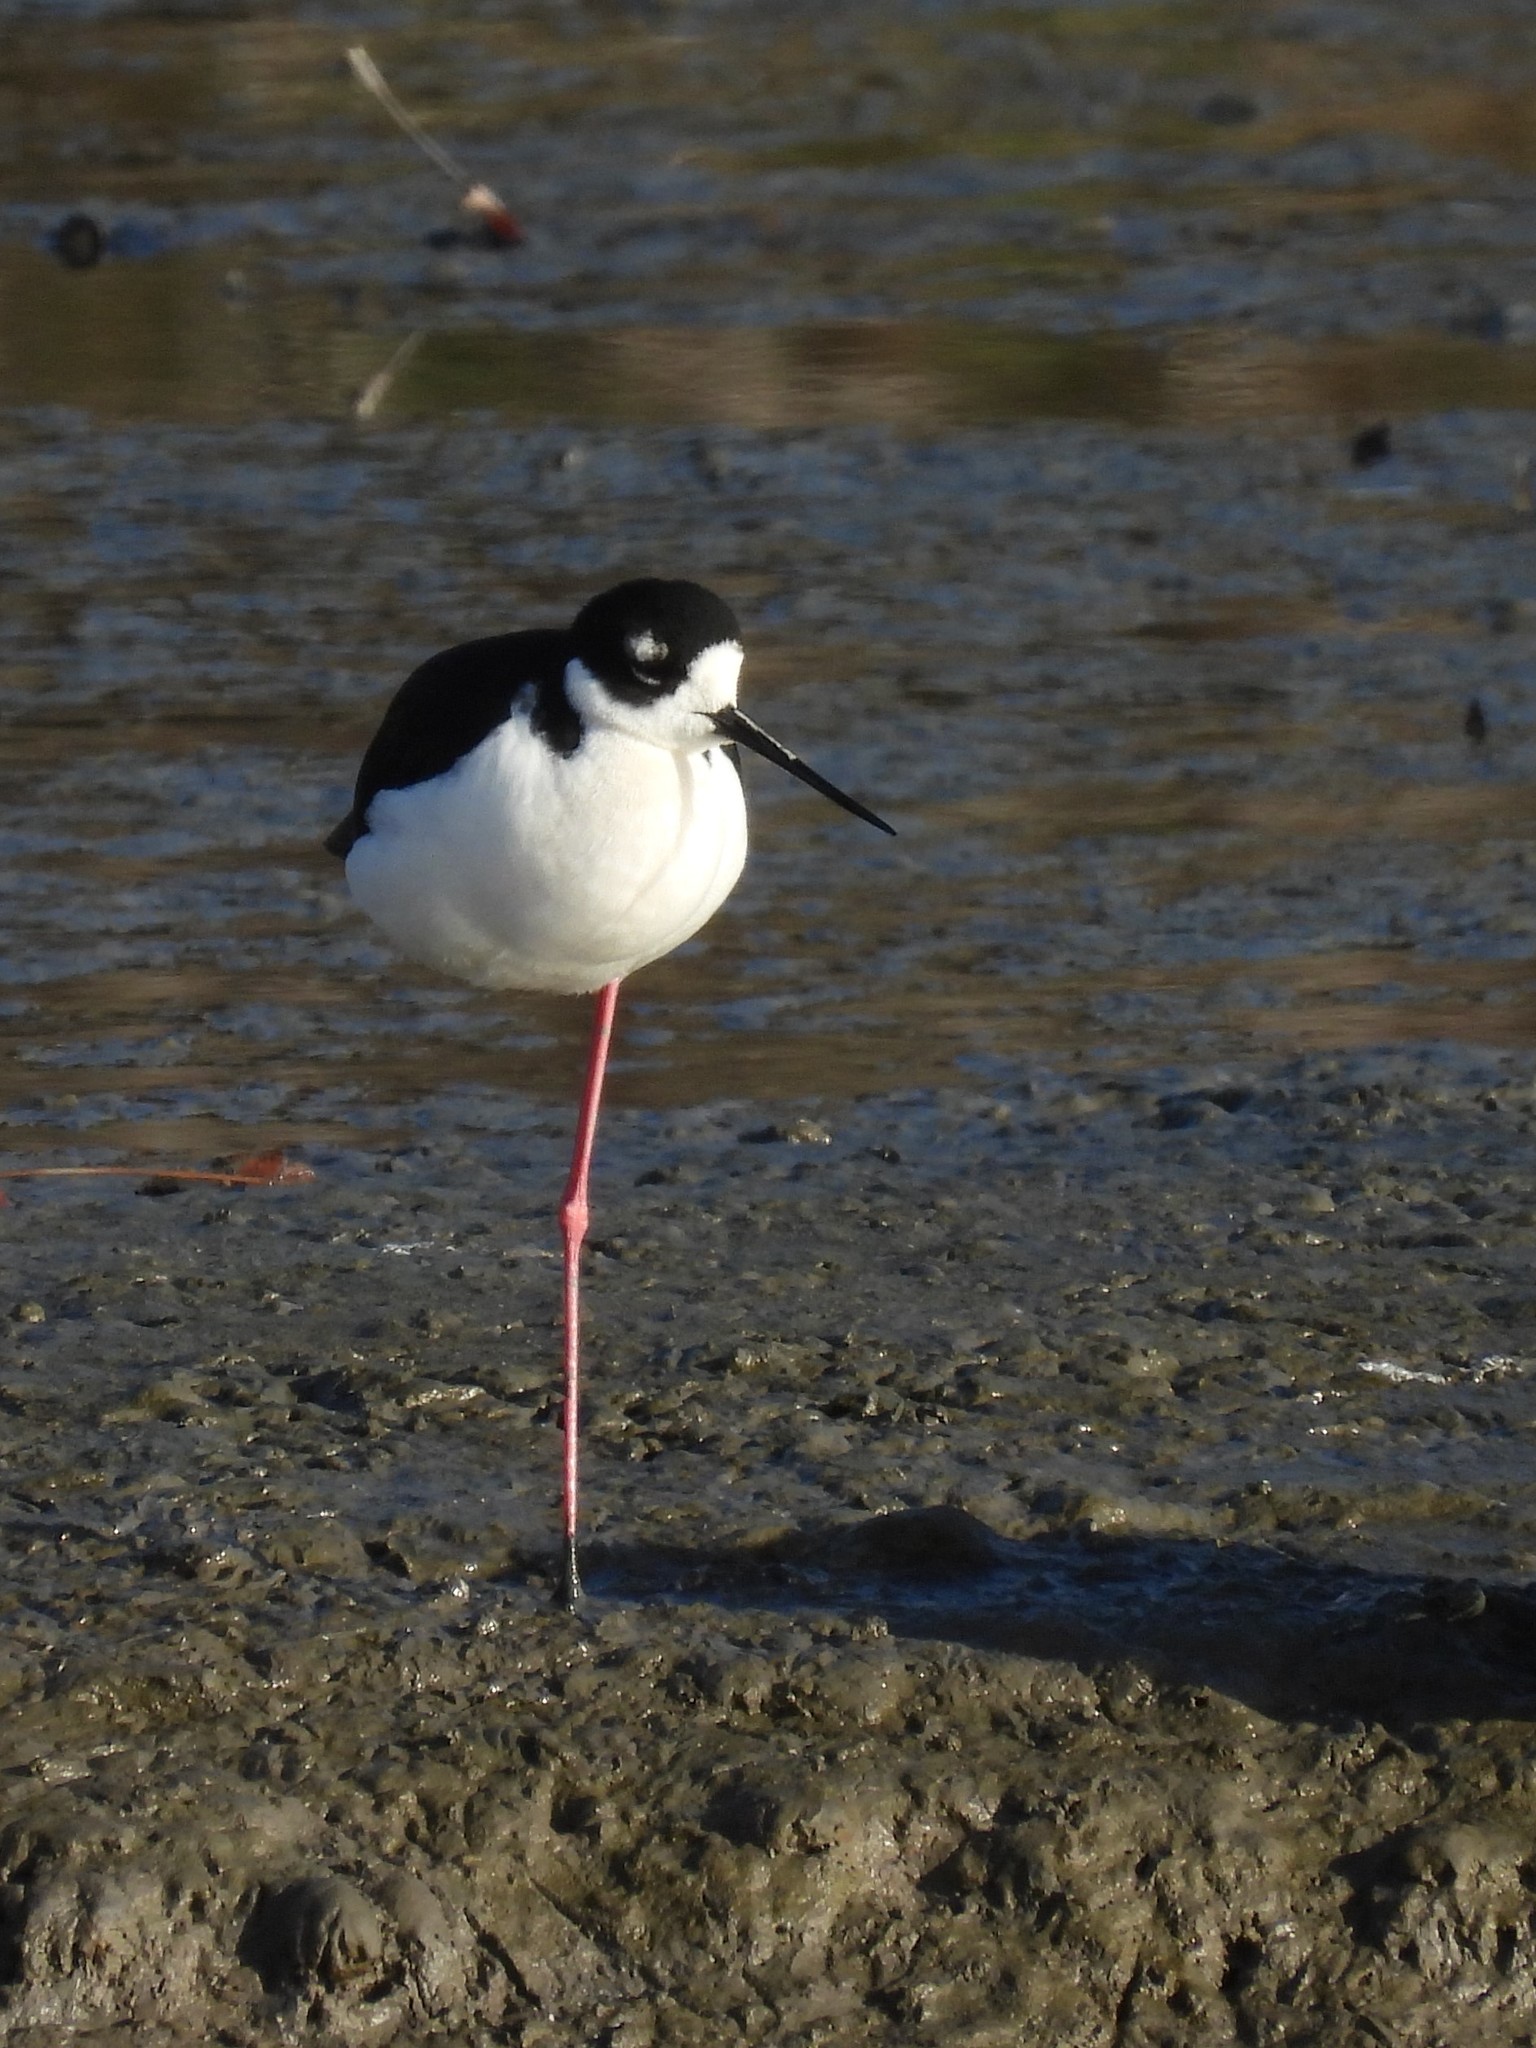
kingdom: Animalia
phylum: Chordata
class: Aves
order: Charadriiformes
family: Recurvirostridae
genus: Himantopus
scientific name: Himantopus mexicanus
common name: Black-necked stilt
